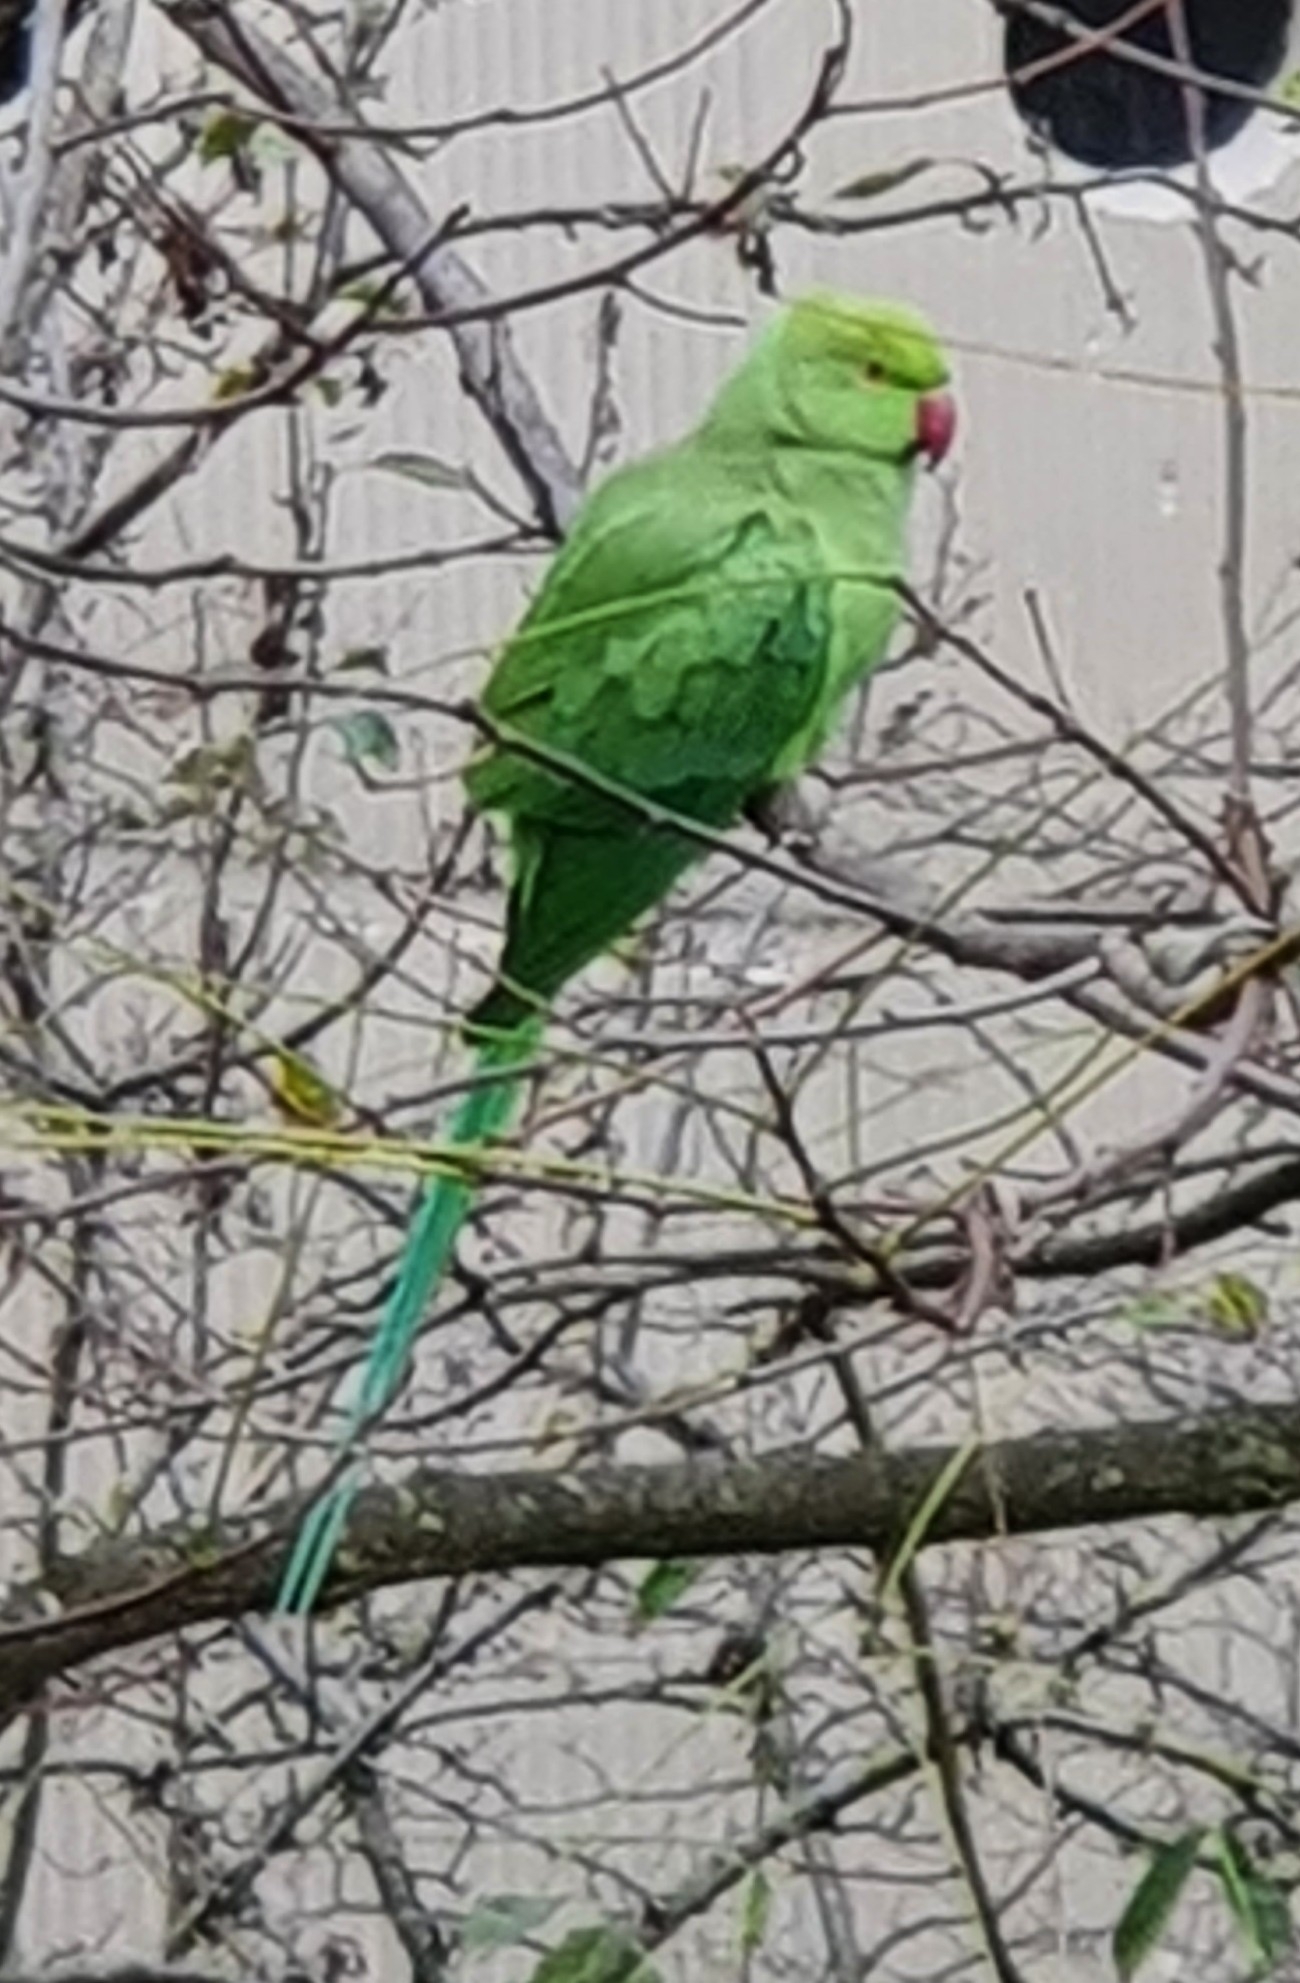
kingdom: Animalia
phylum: Chordata
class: Aves
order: Psittaciformes
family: Psittacidae
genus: Psittacula
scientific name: Psittacula krameri
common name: Rose-ringed parakeet
